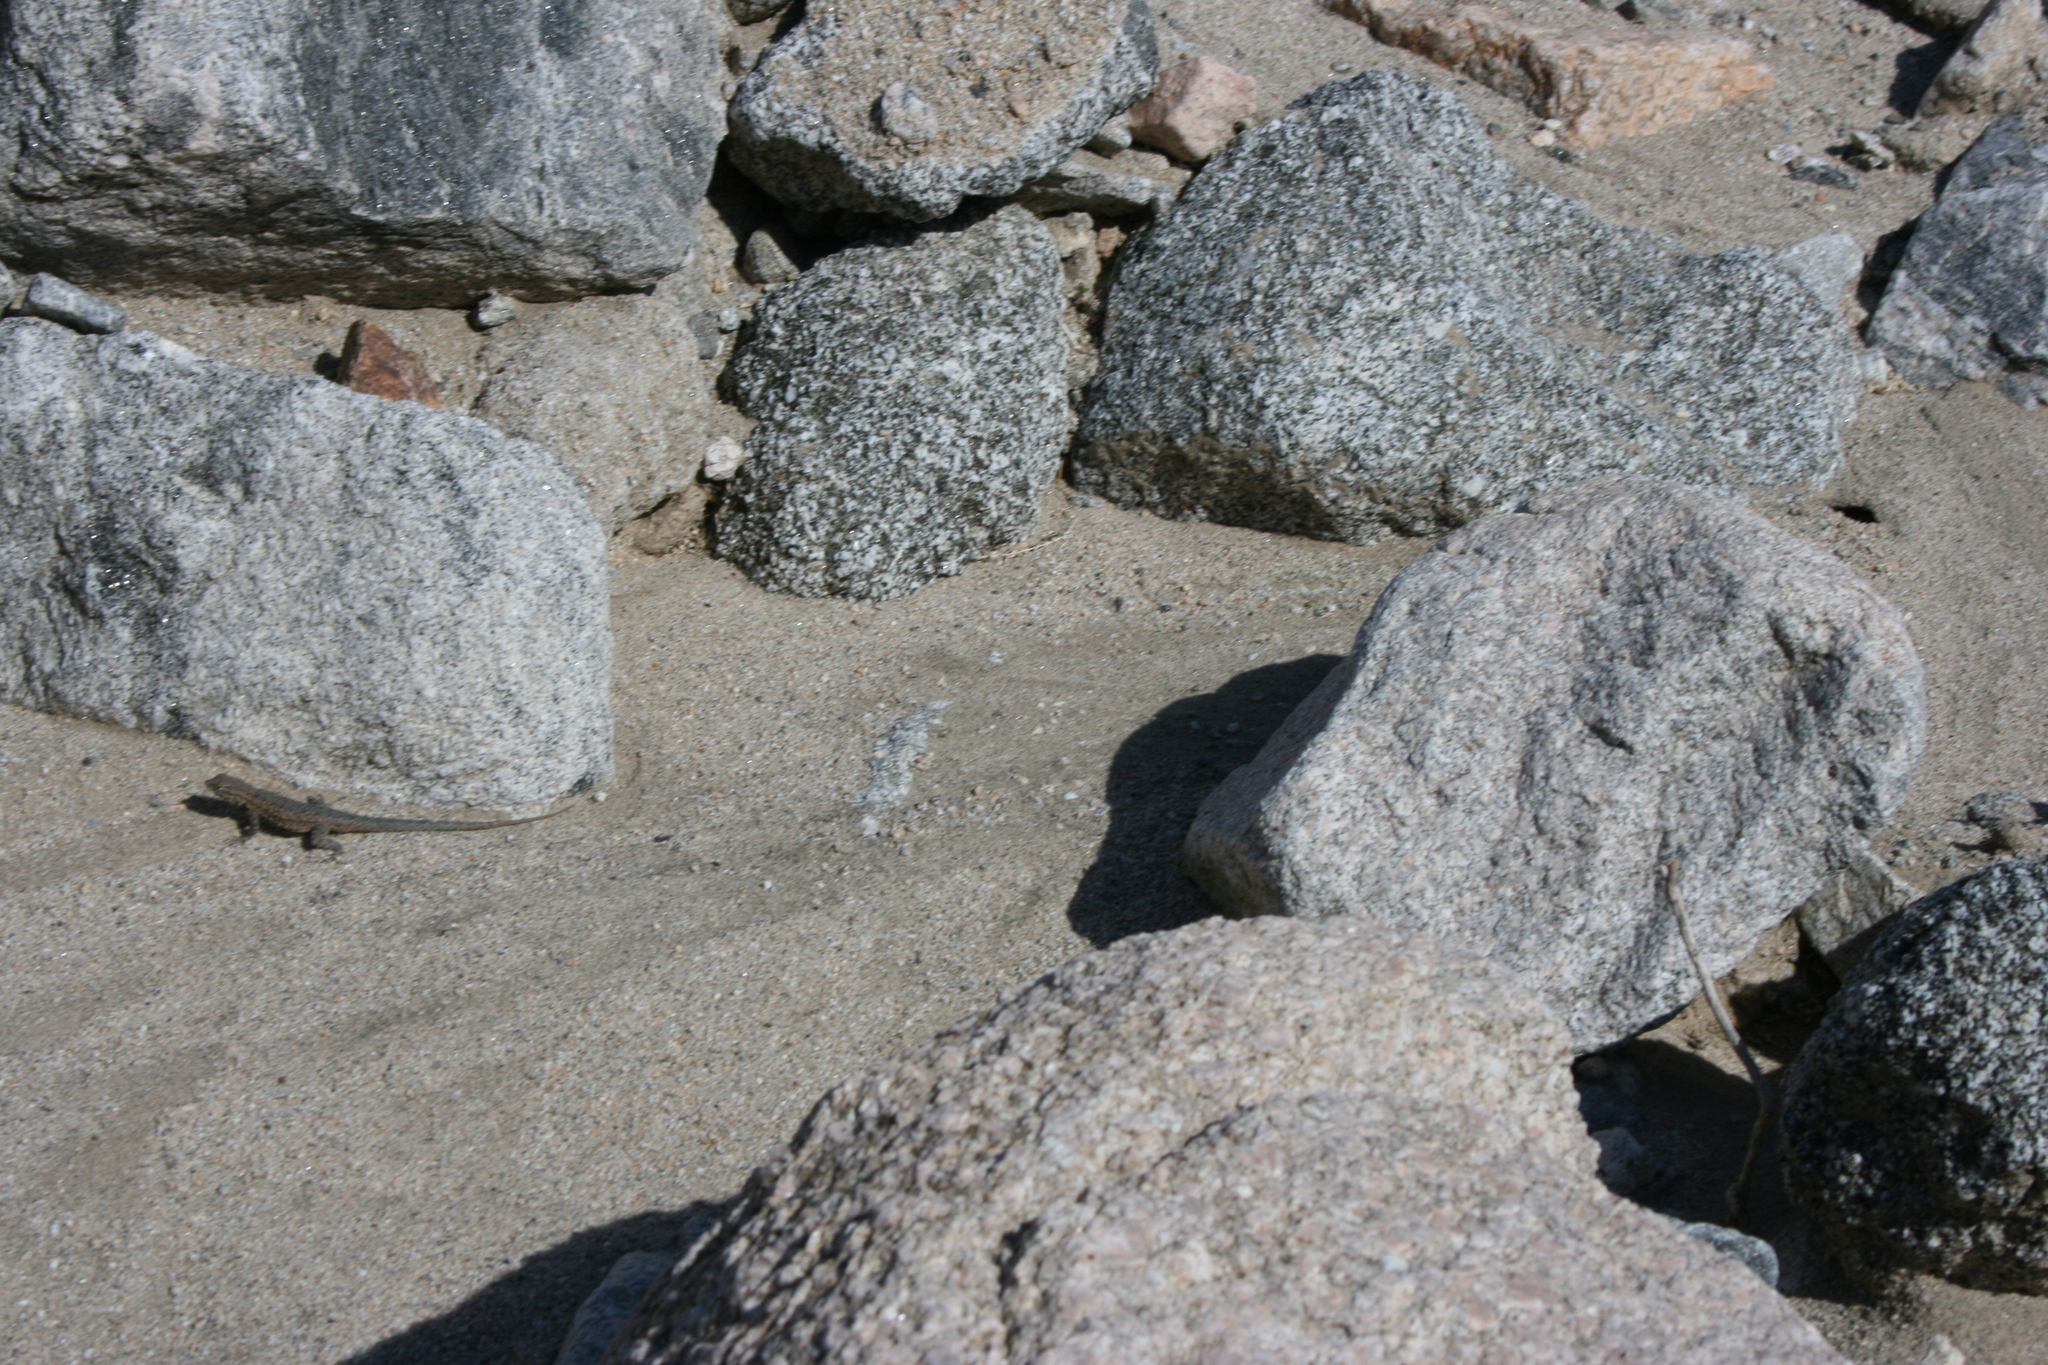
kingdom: Animalia
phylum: Chordata
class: Squamata
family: Phrynosomatidae
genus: Uta
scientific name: Uta stansburiana
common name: Side-blotched lizard
